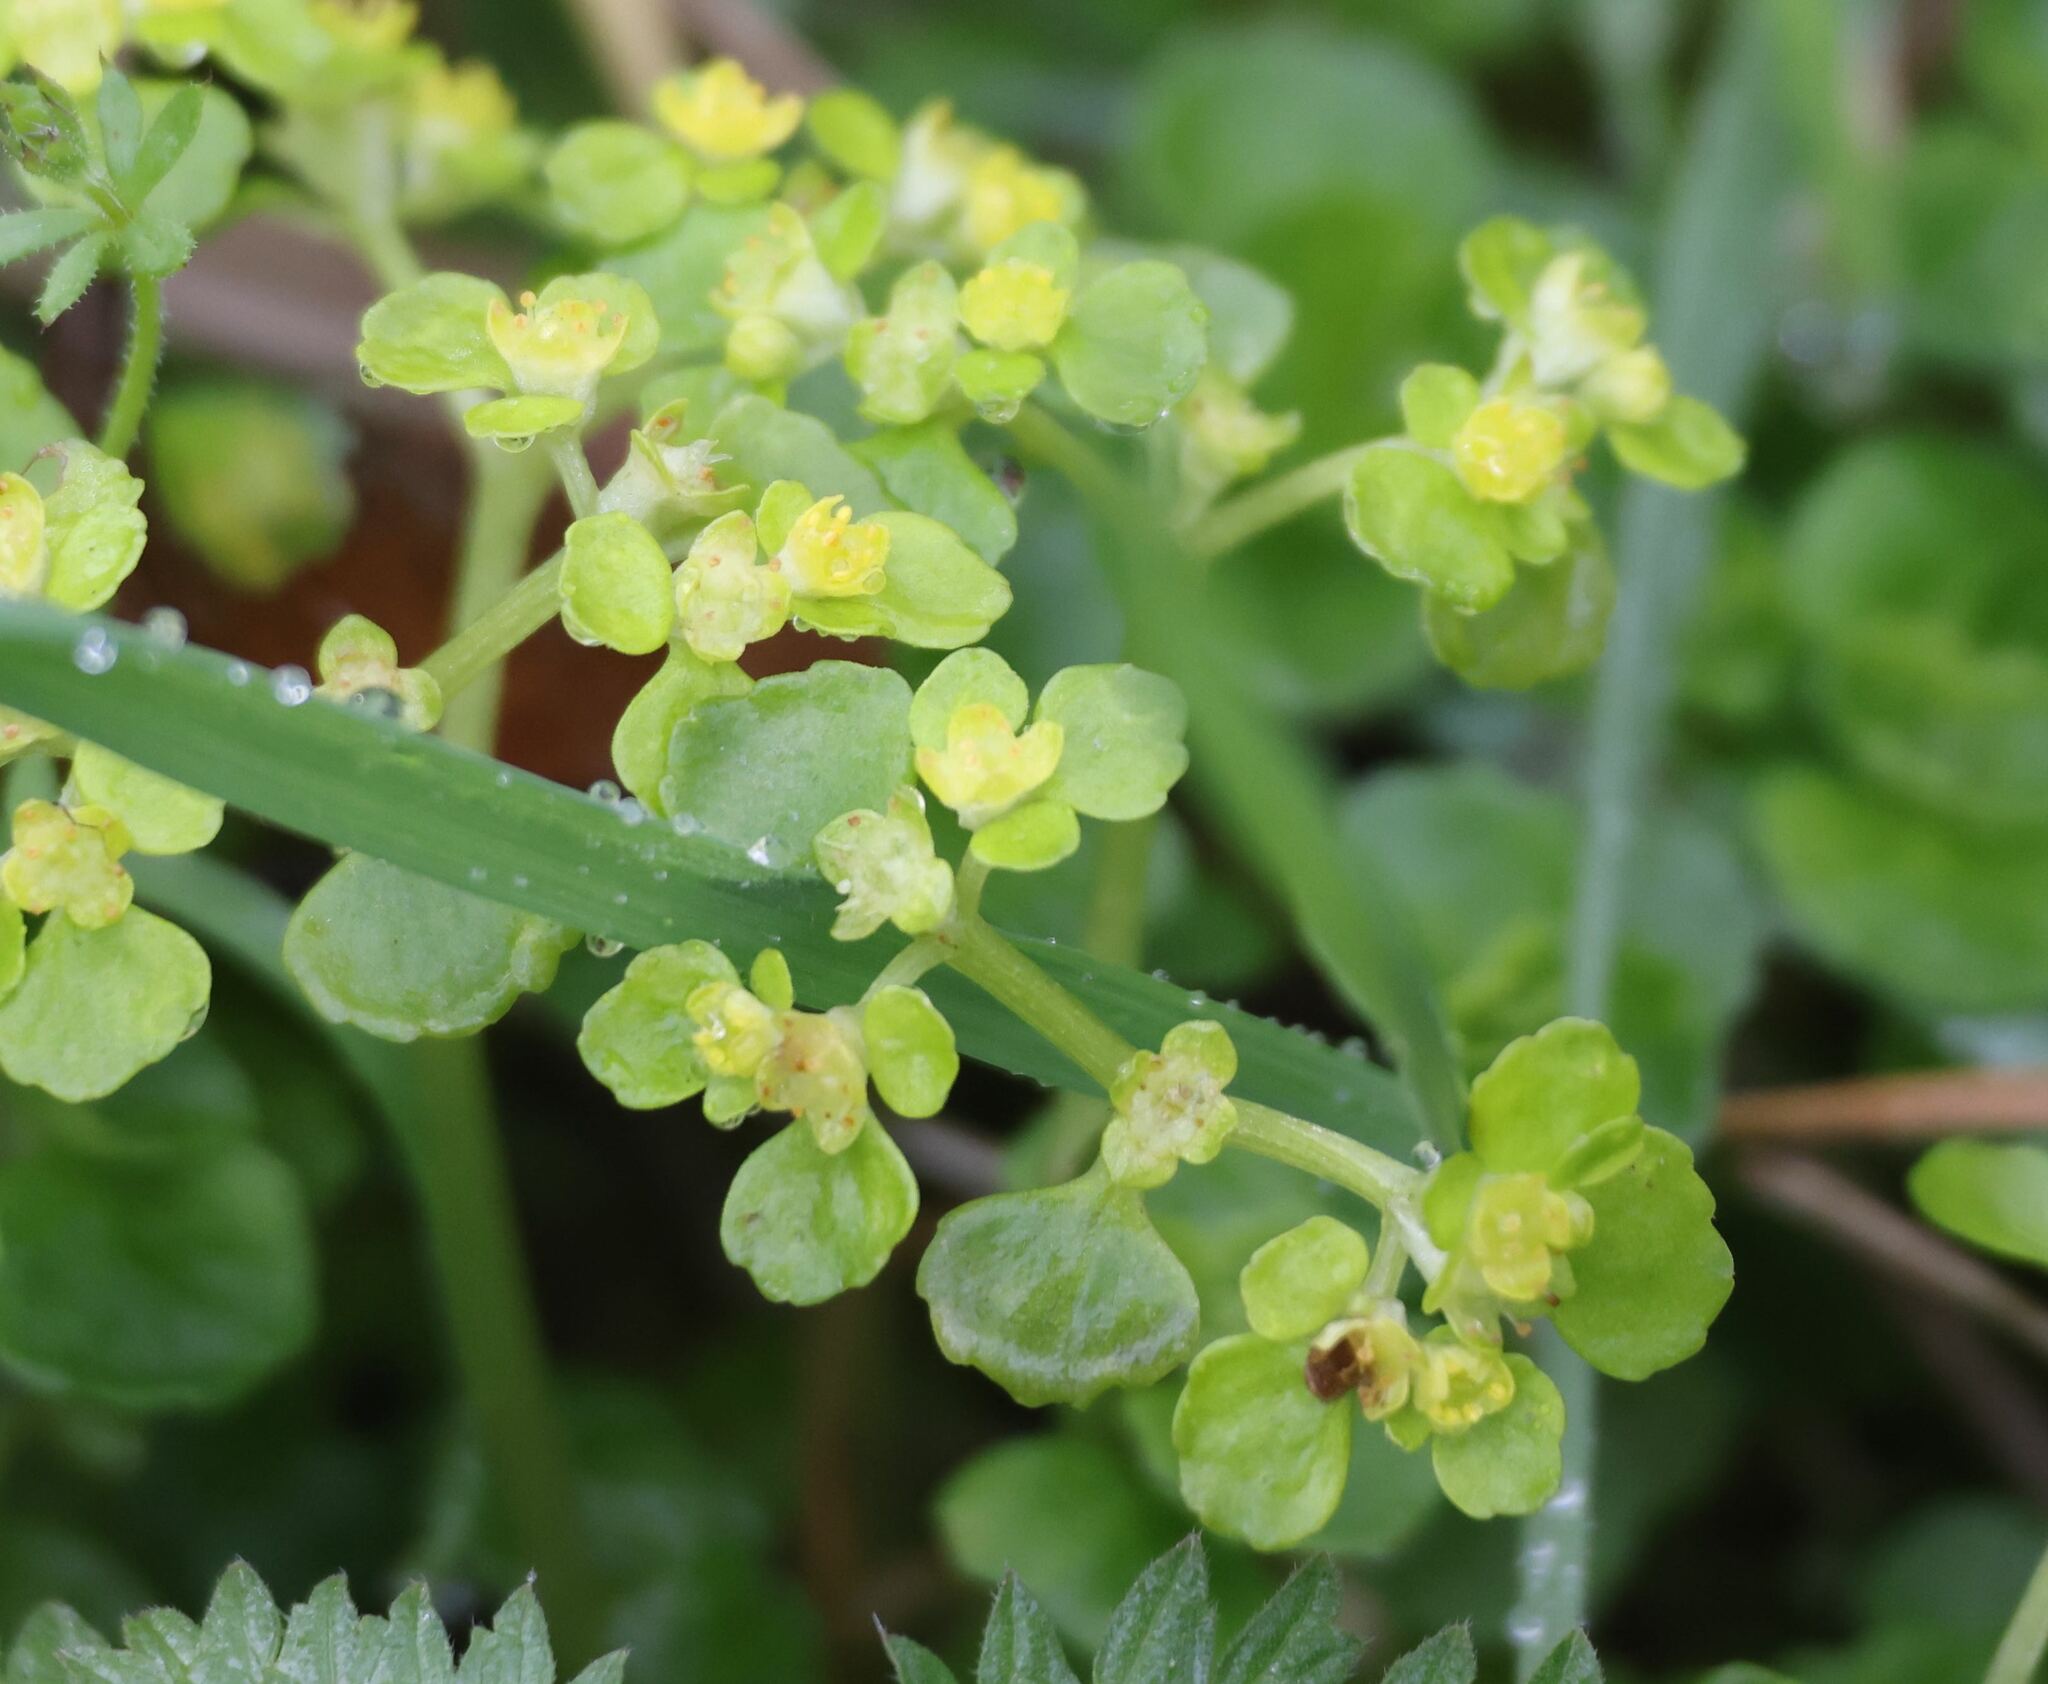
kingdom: Plantae
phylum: Tracheophyta
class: Magnoliopsida
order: Saxifragales
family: Saxifragaceae
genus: Chrysosplenium
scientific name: Chrysosplenium oppositifolium
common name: Opposite-leaved golden-saxifrage
